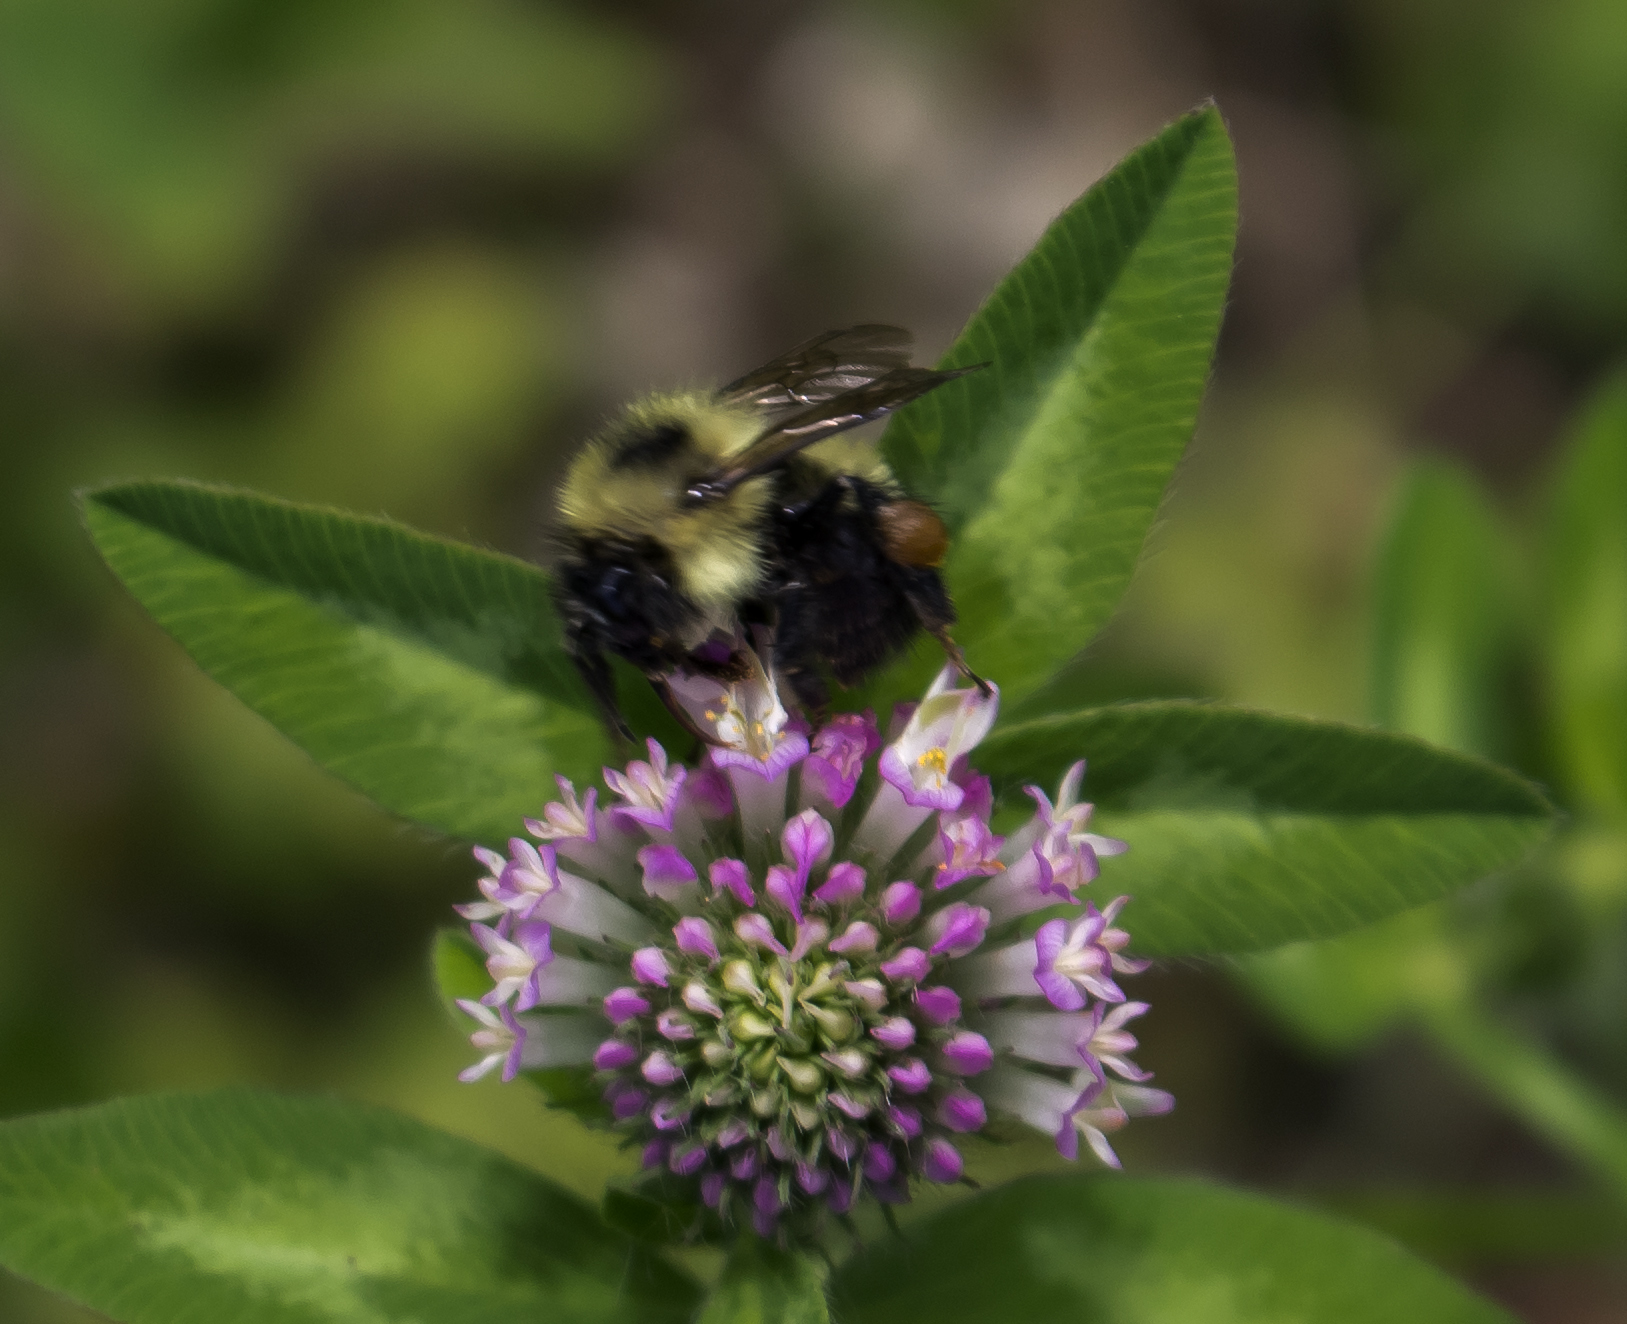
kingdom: Plantae
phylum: Tracheophyta
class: Magnoliopsida
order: Fabales
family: Fabaceae
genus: Trifolium
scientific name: Trifolium pratense
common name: Red clover
